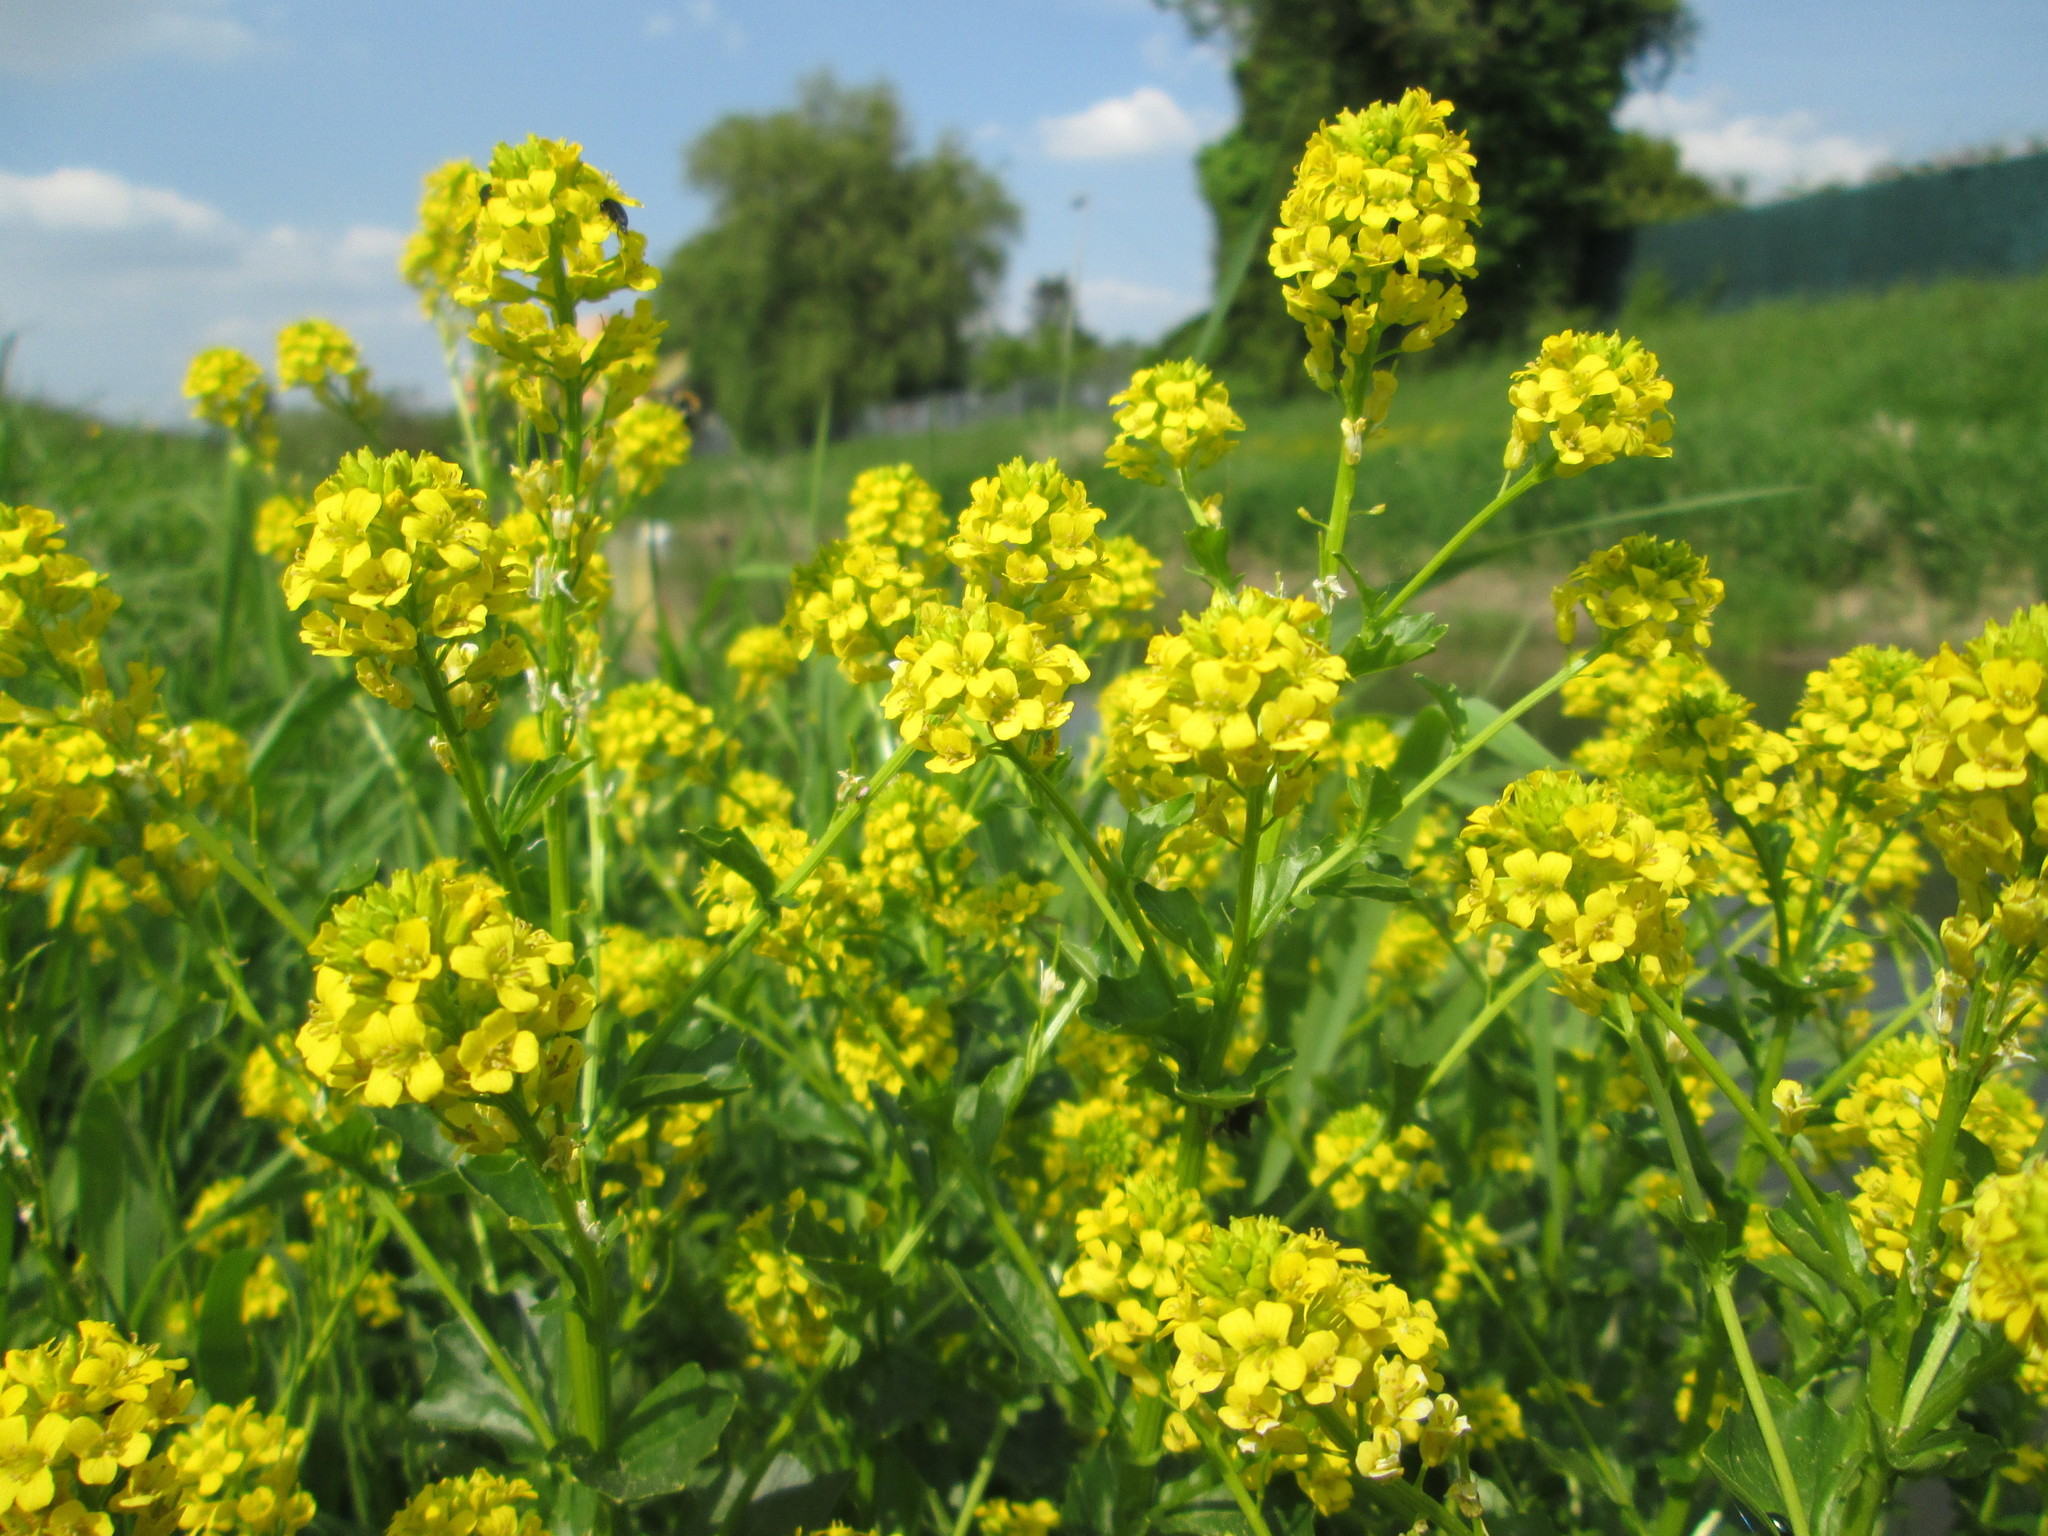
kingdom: Plantae
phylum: Tracheophyta
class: Magnoliopsida
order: Brassicales
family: Brassicaceae
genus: Barbarea
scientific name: Barbarea vulgaris
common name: Cressy-greens
